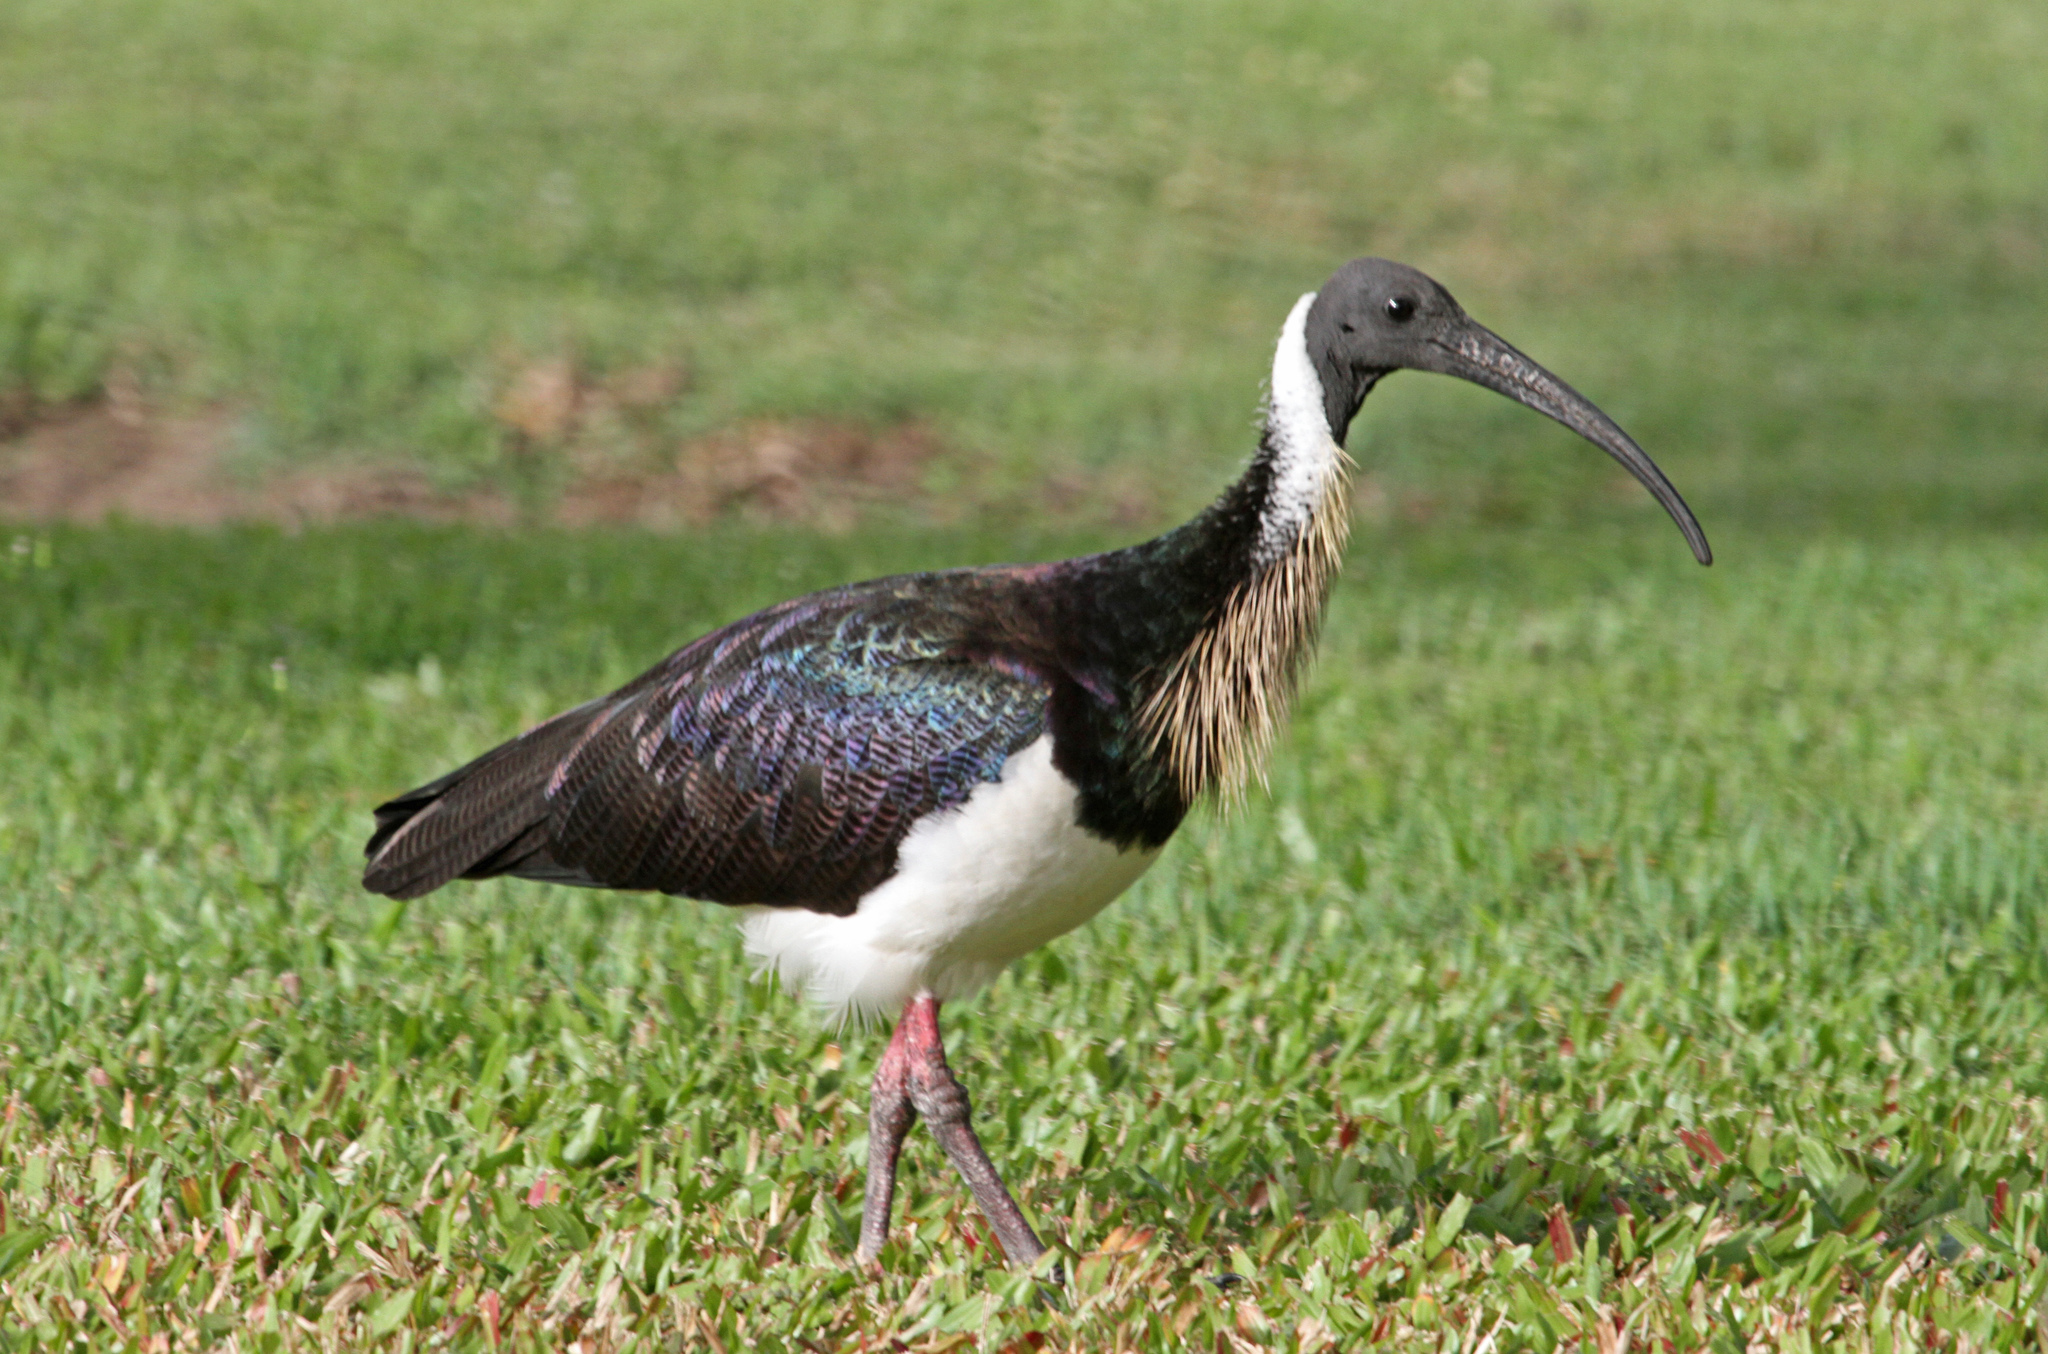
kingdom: Animalia
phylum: Chordata
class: Aves
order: Pelecaniformes
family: Threskiornithidae
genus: Threskiornis
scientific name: Threskiornis spinicollis
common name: Straw-necked ibis
